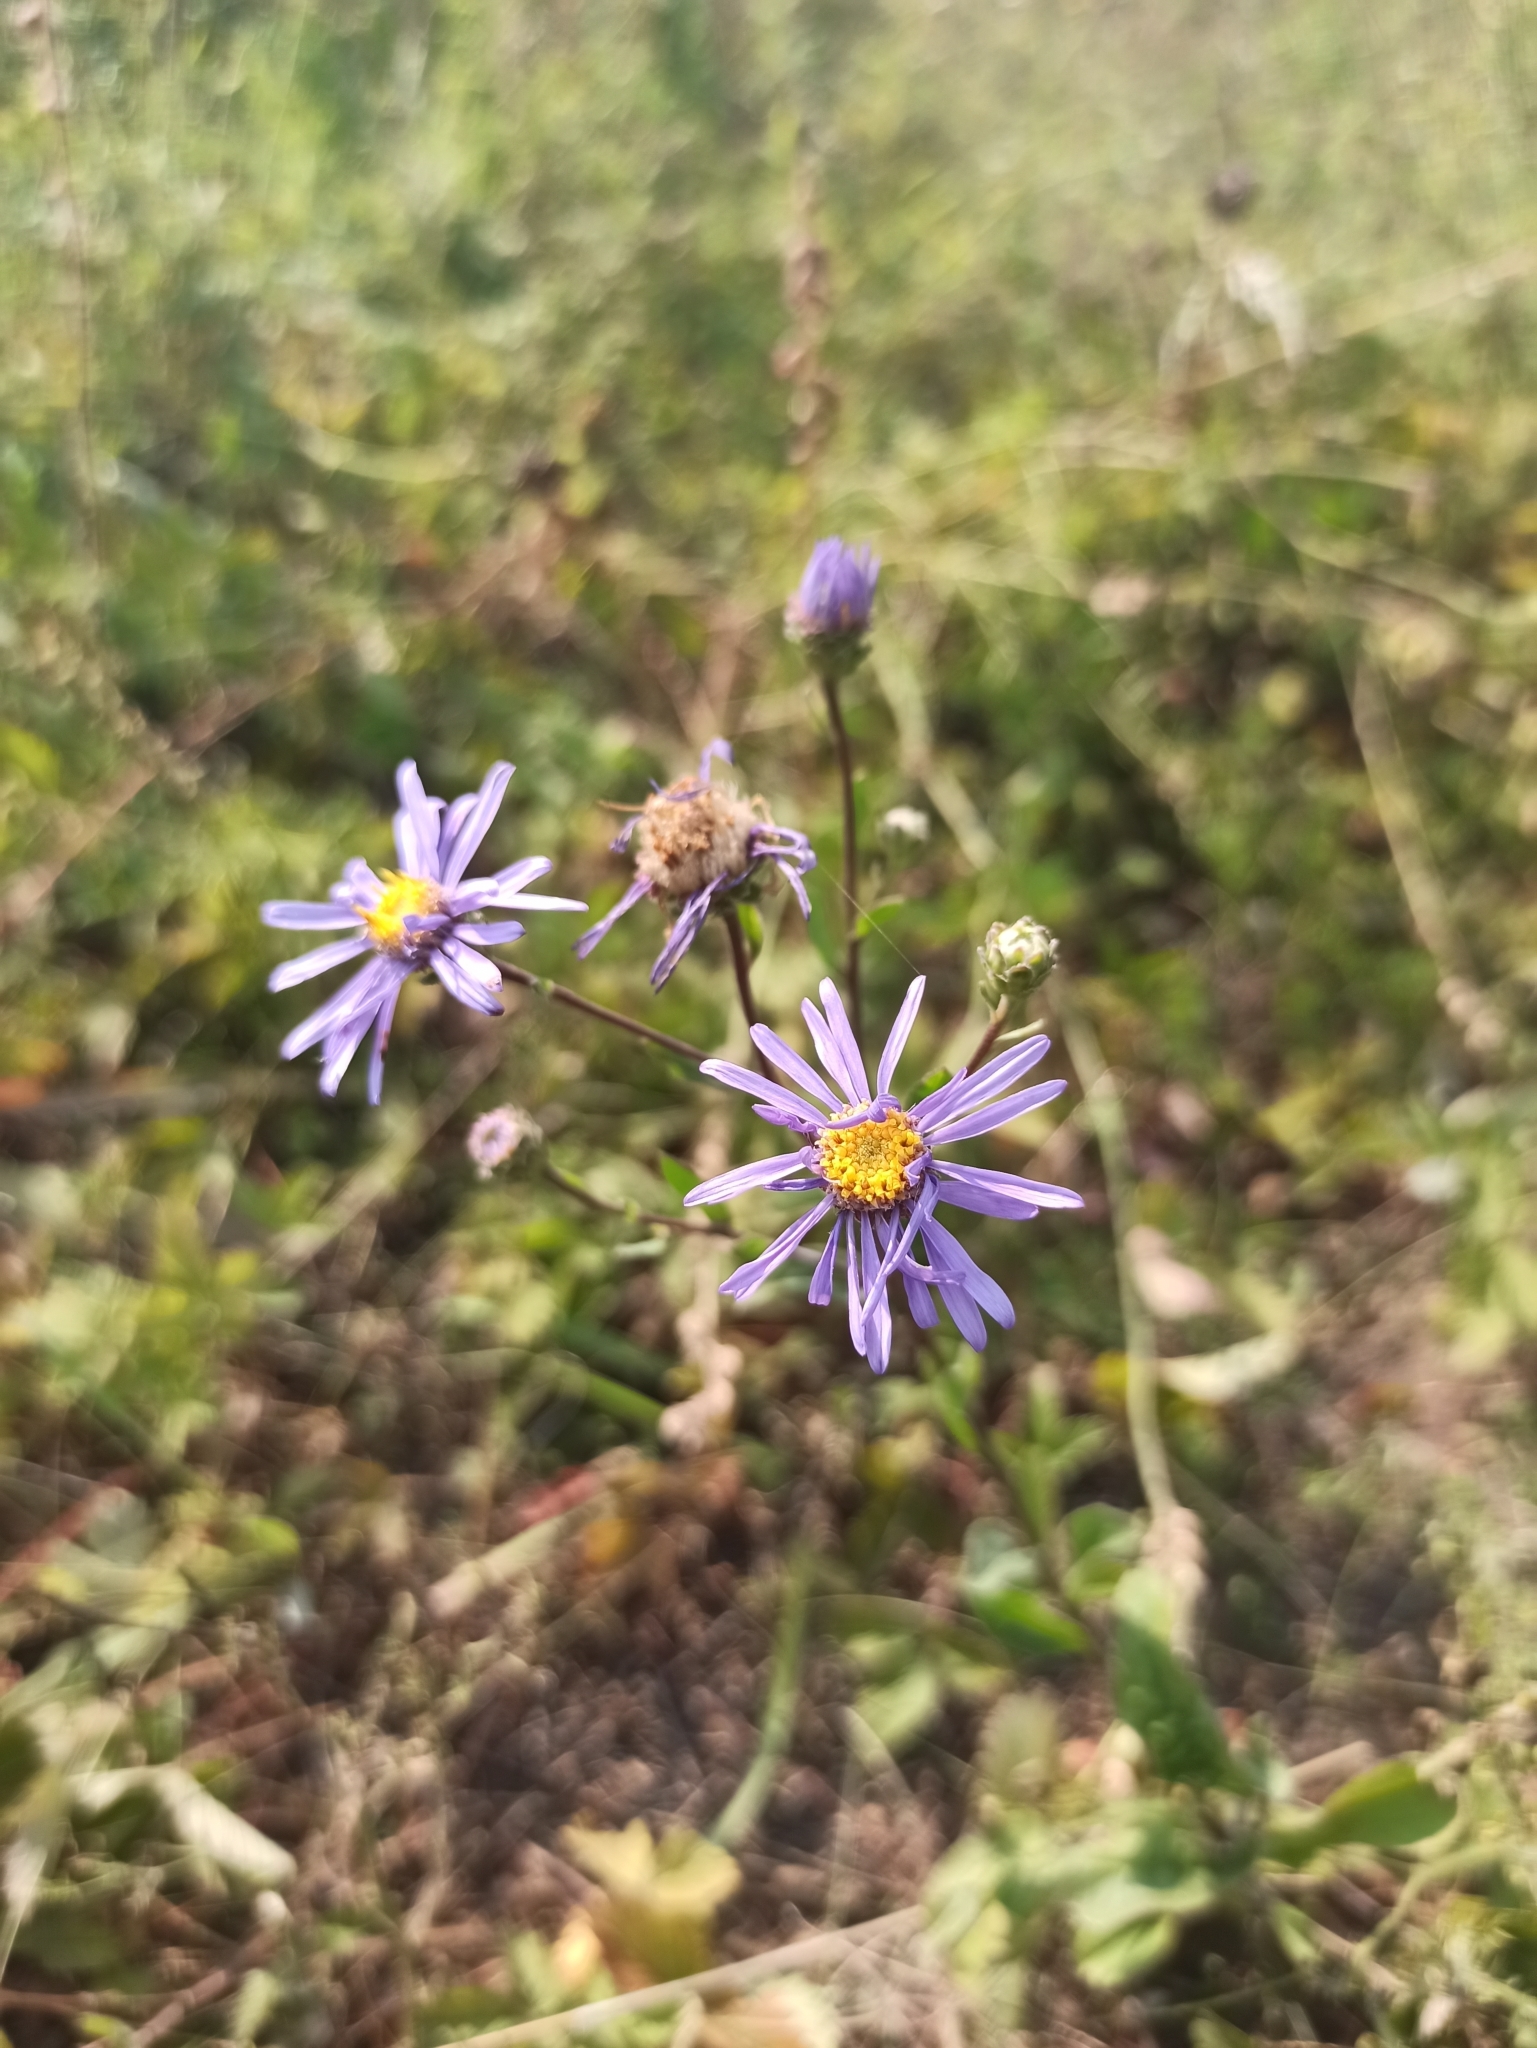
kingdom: Plantae
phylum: Tracheophyta
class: Magnoliopsida
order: Asterales
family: Asteraceae
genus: Aster
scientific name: Aster amellus
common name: European michaelmas daisy
